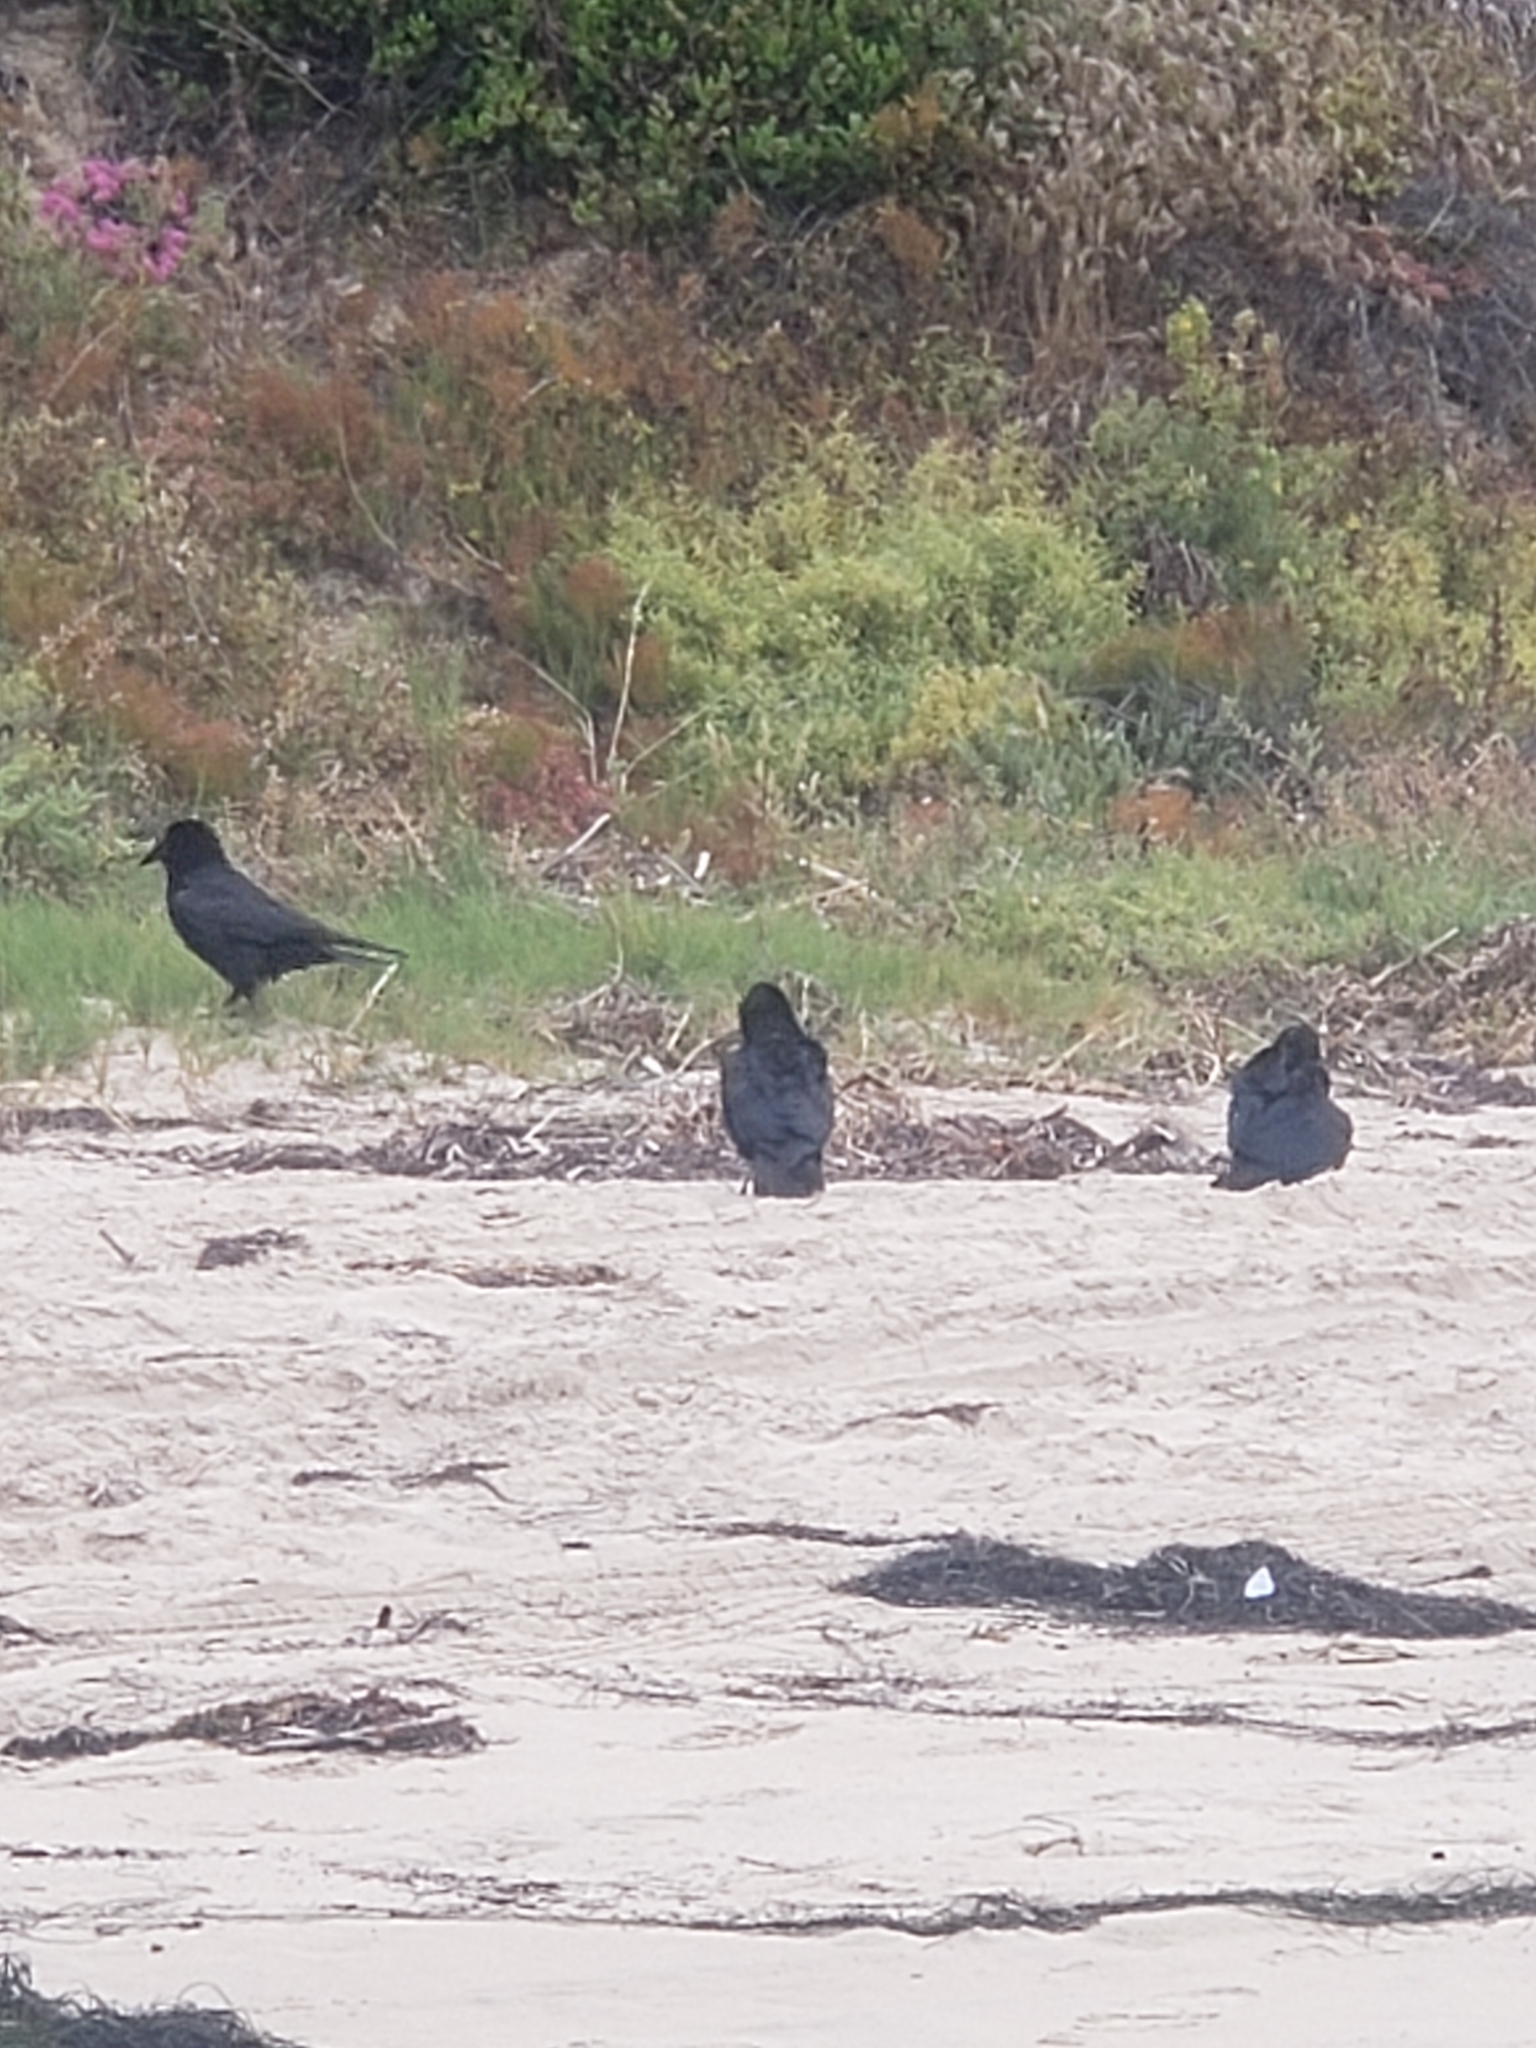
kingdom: Animalia
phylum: Chordata
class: Aves
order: Passeriformes
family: Corvidae
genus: Corvus
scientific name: Corvus corax
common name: Common raven
